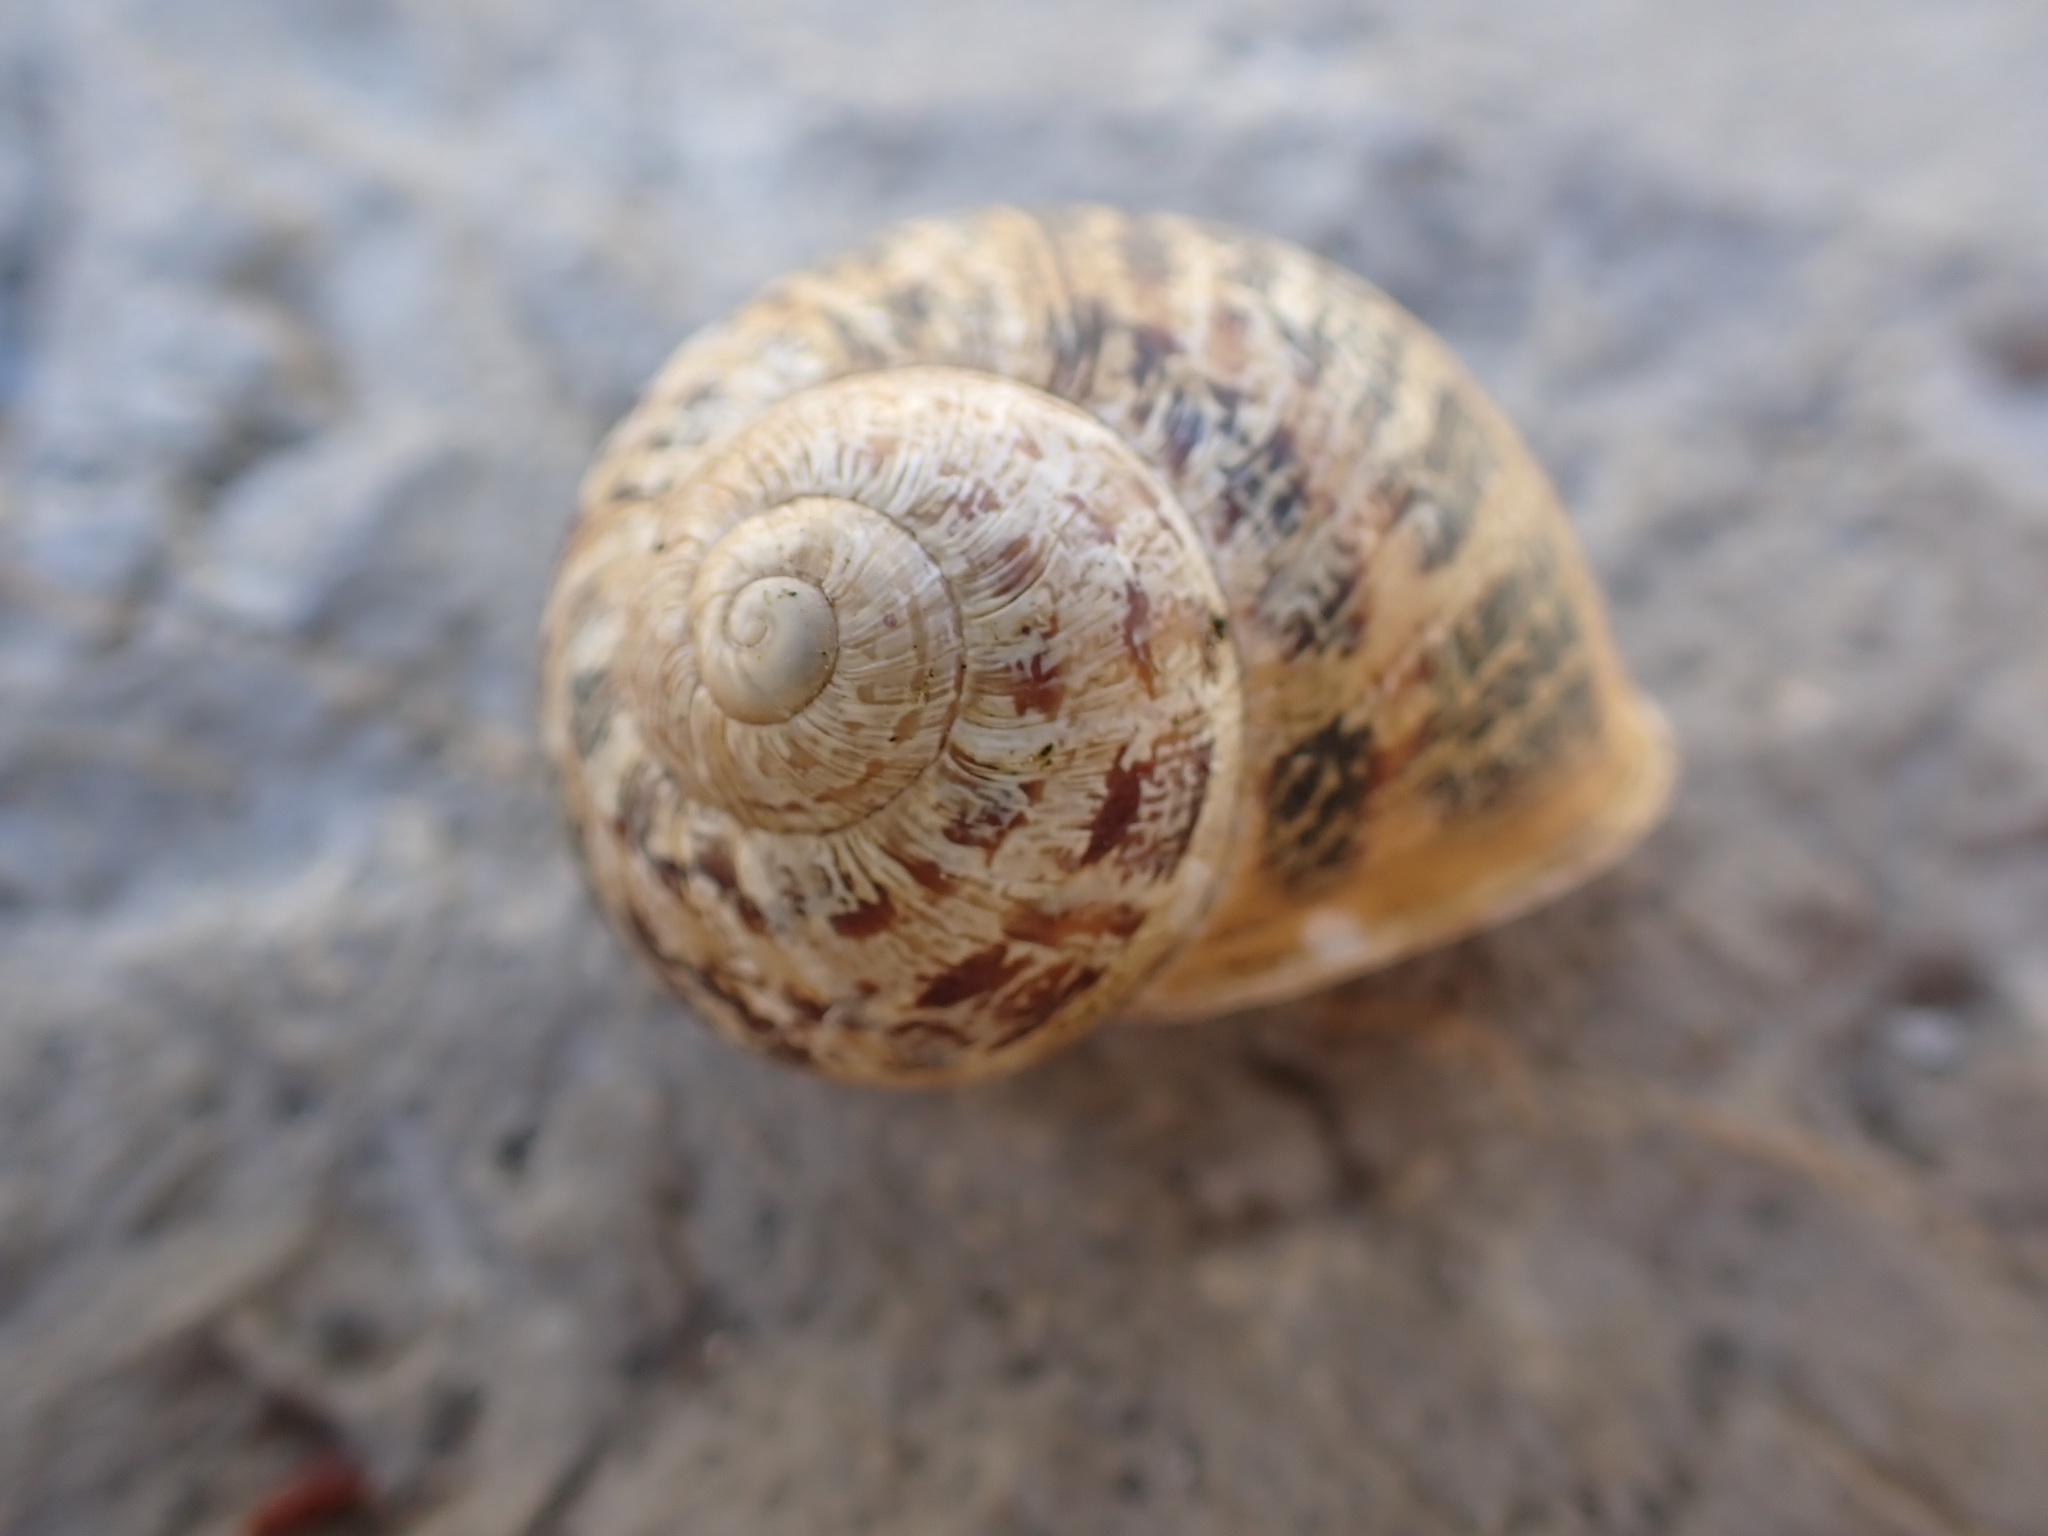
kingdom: Animalia
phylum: Mollusca
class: Gastropoda
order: Stylommatophora
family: Helicidae
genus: Cornu
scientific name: Cornu aspersum
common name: Brown garden snail
